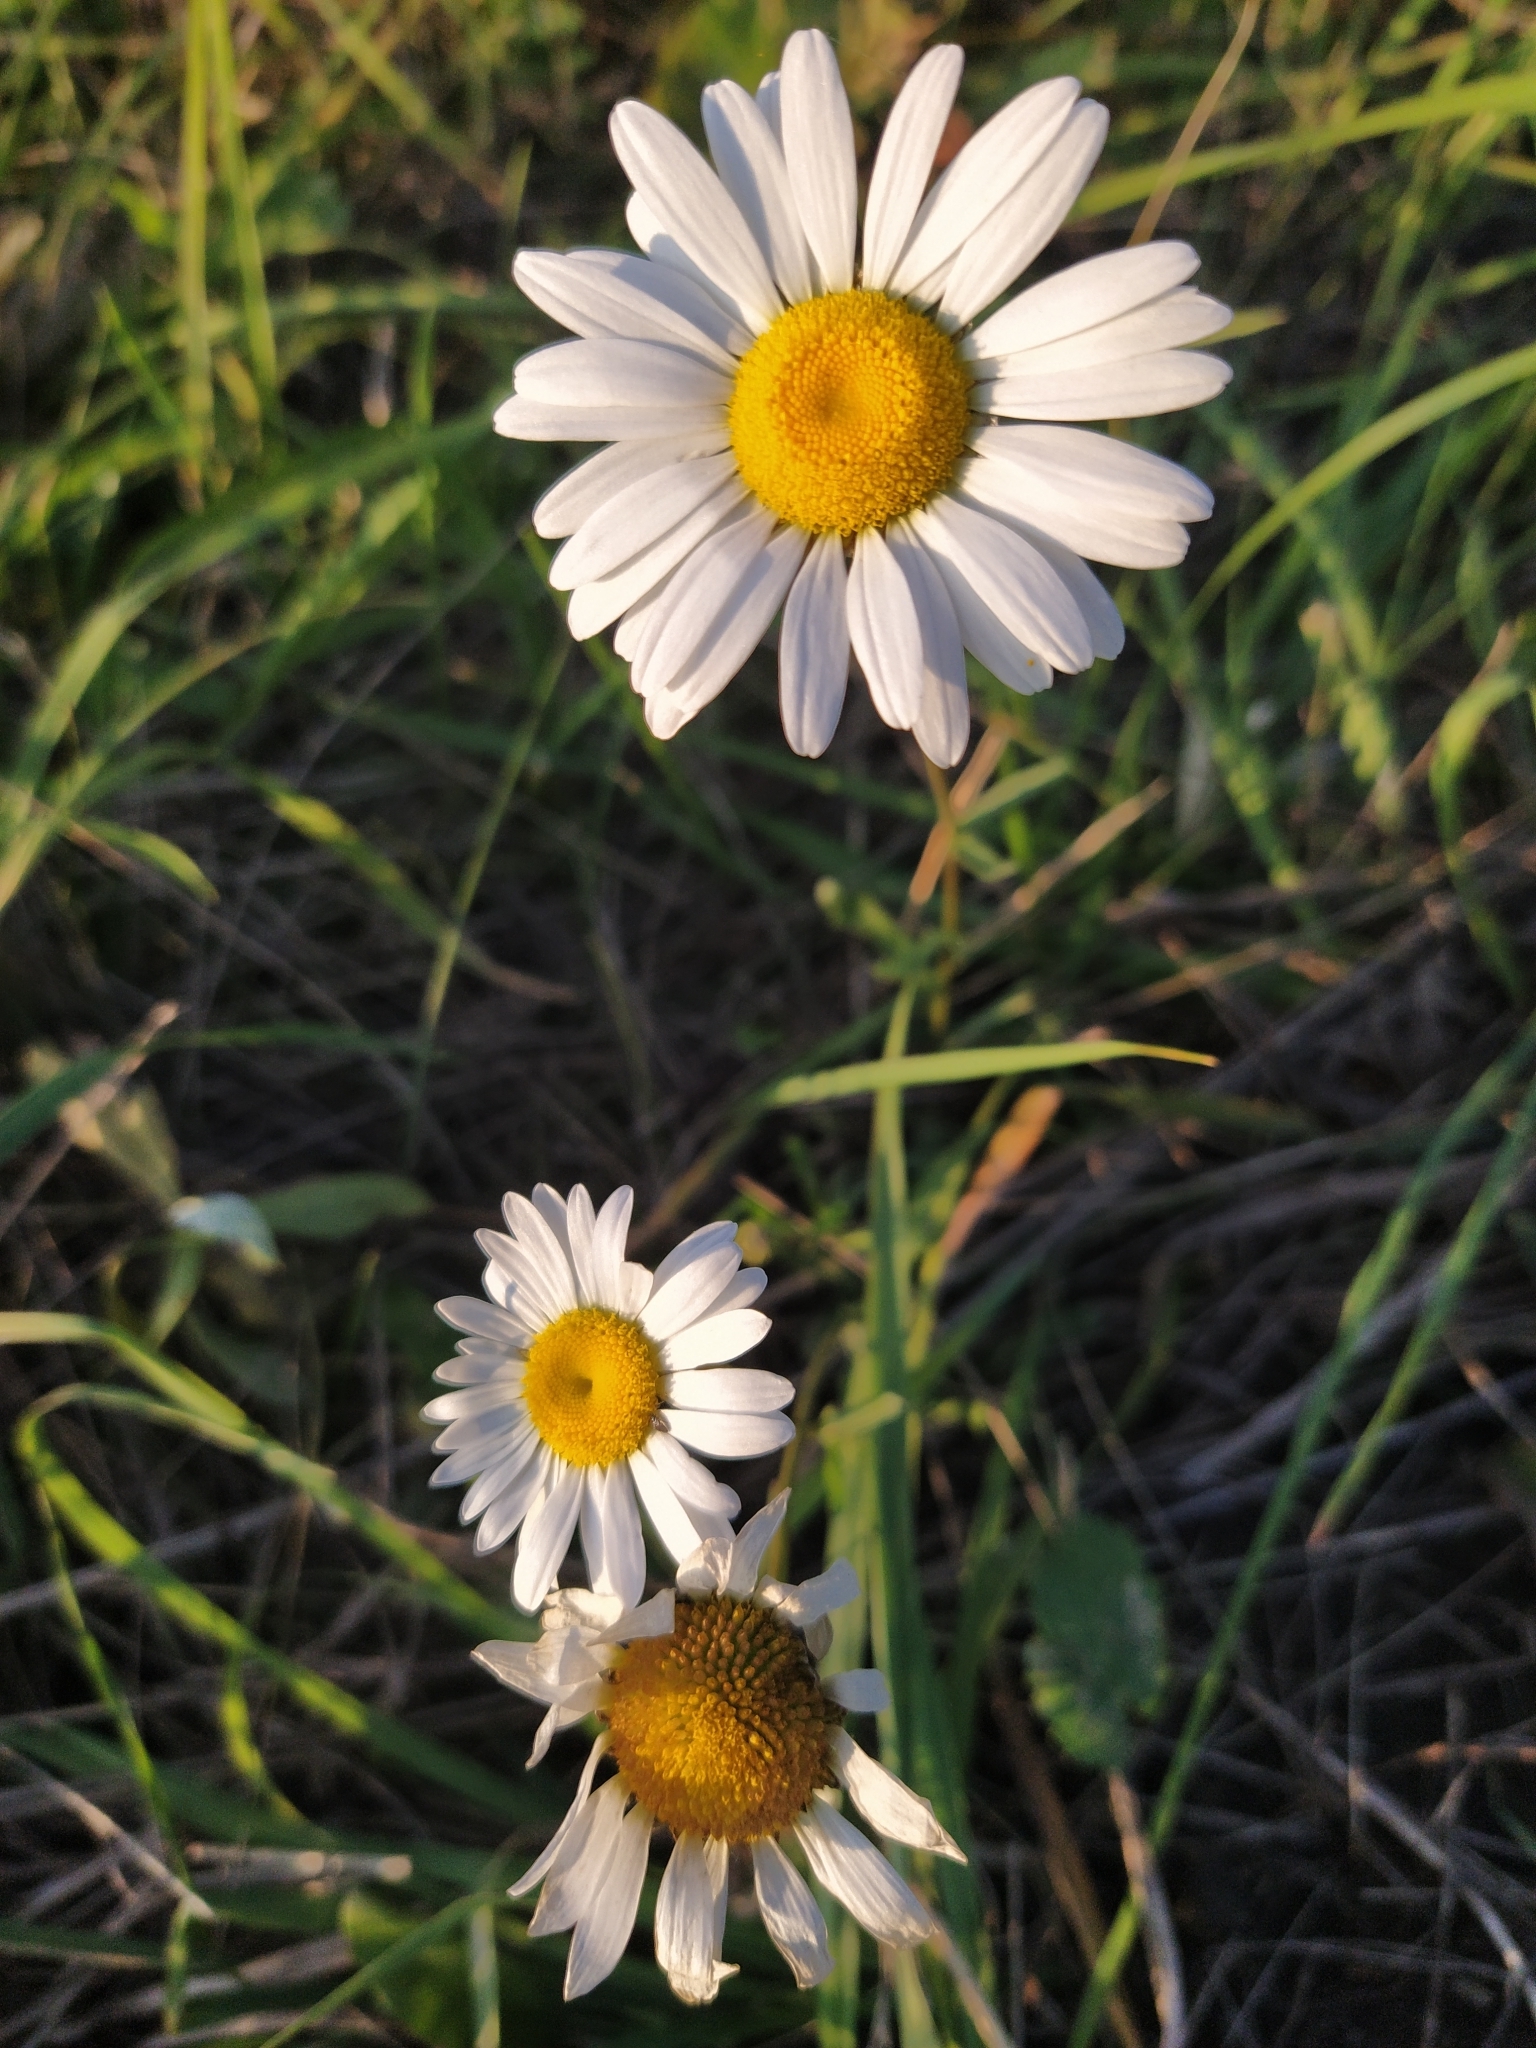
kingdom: Plantae
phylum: Tracheophyta
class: Magnoliopsida
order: Asterales
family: Asteraceae
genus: Leucanthemum
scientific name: Leucanthemum vulgare
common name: Oxeye daisy
